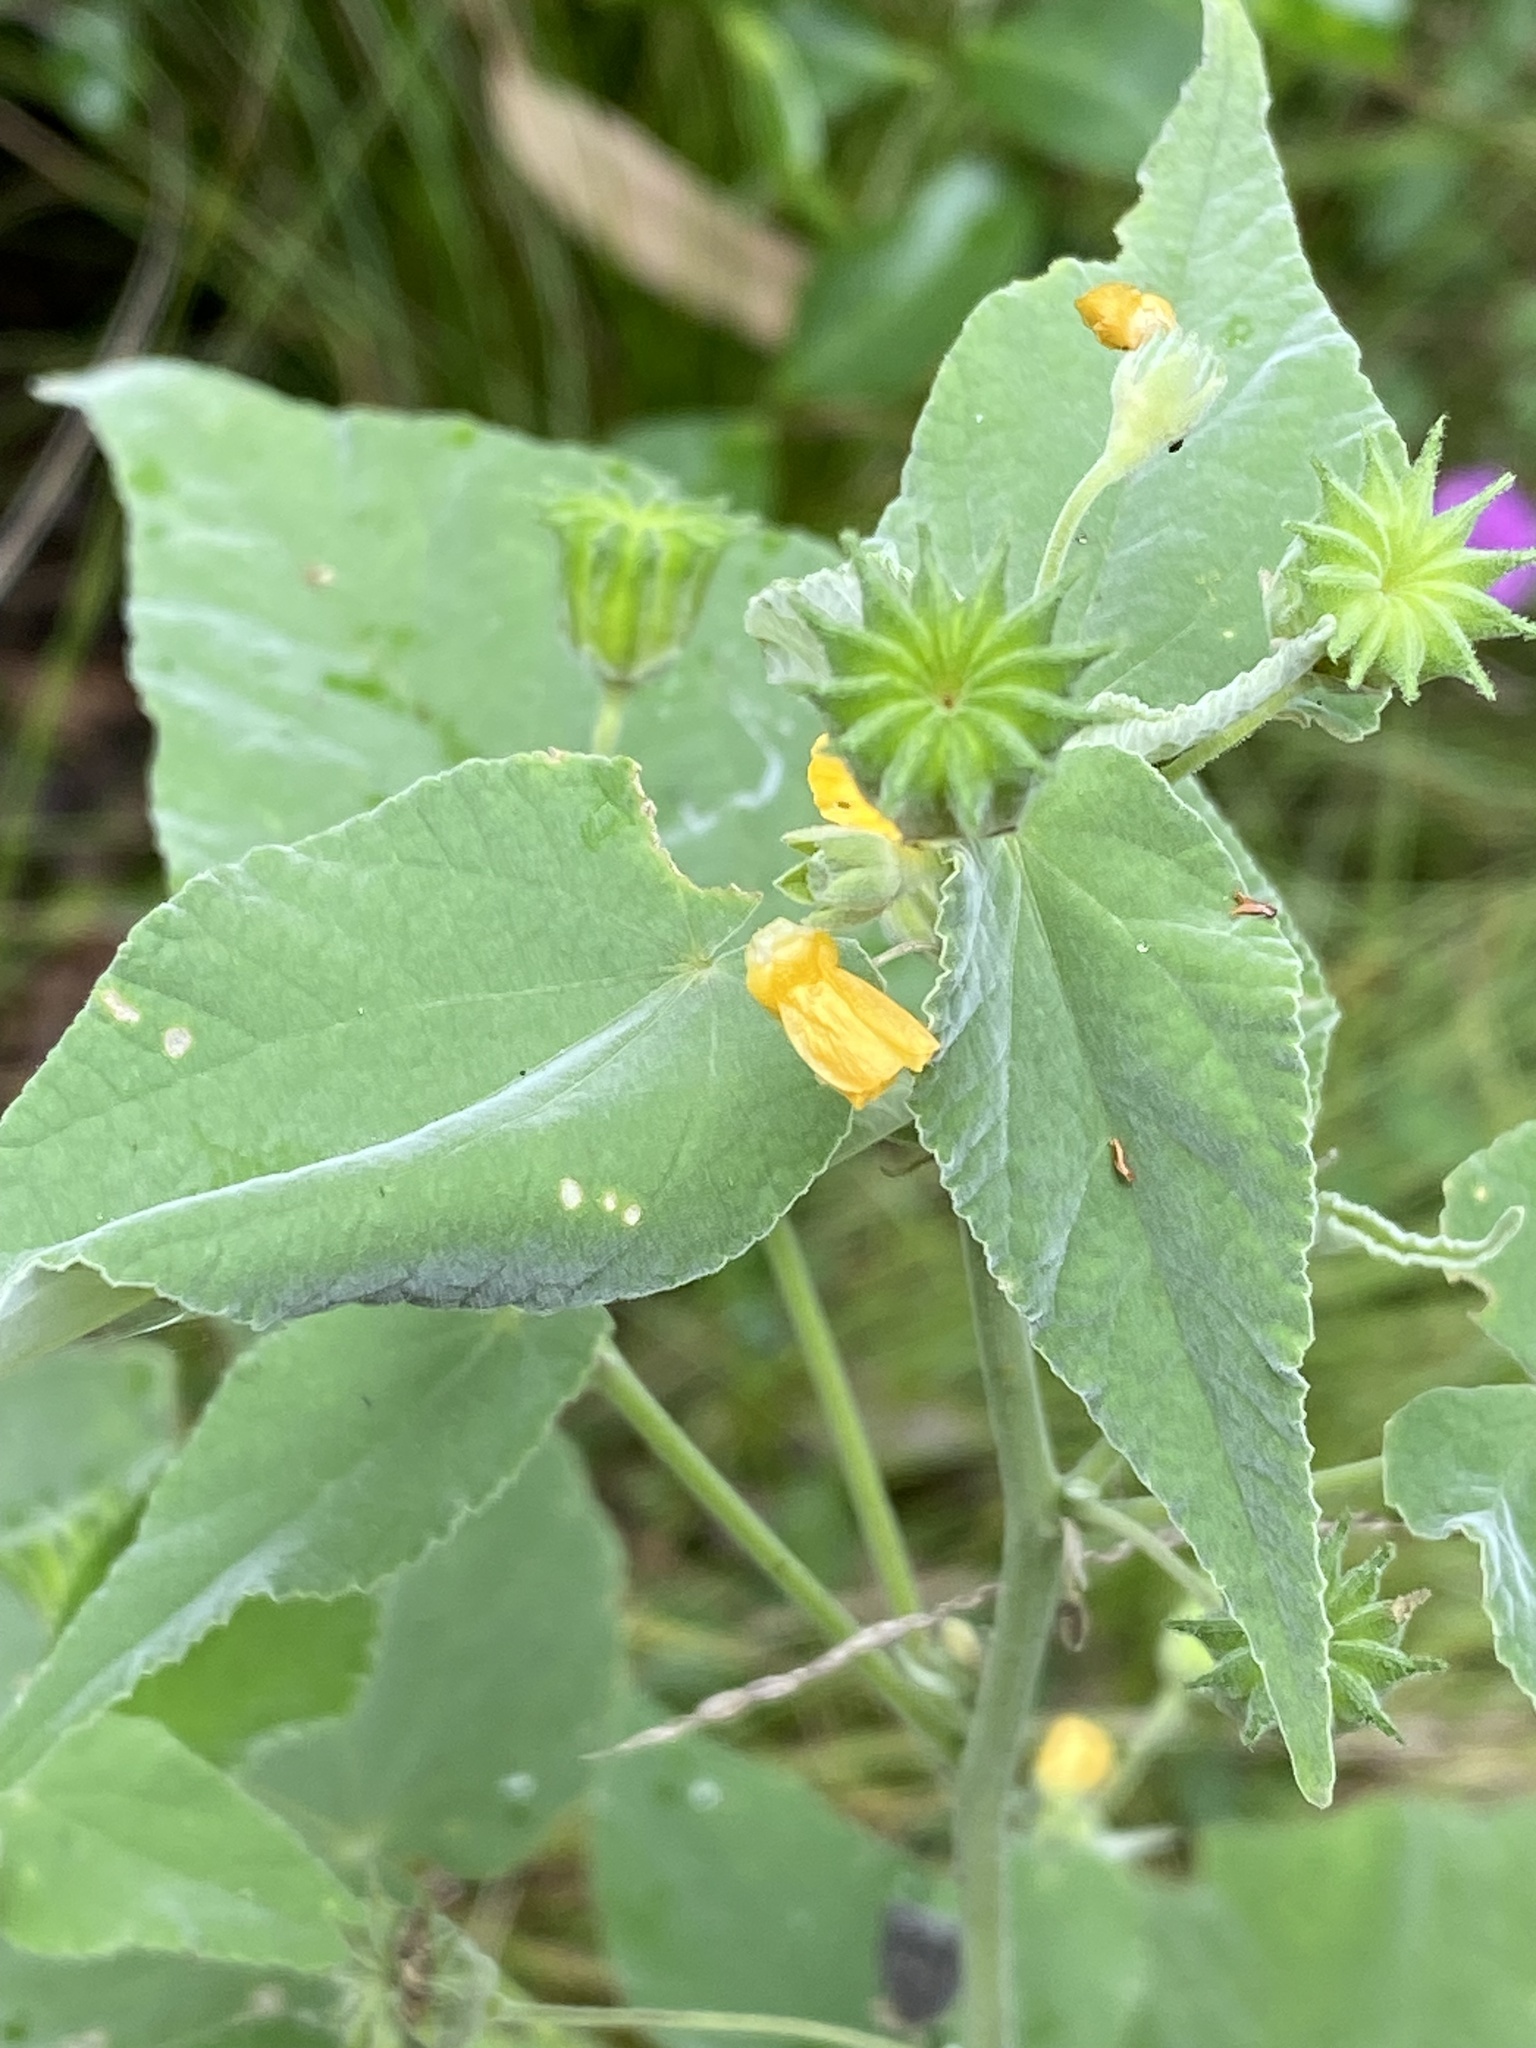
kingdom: Plantae
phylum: Tracheophyta
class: Magnoliopsida
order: Malvales
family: Malvaceae
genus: Abutilon
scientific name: Abutilon oxycarpum
